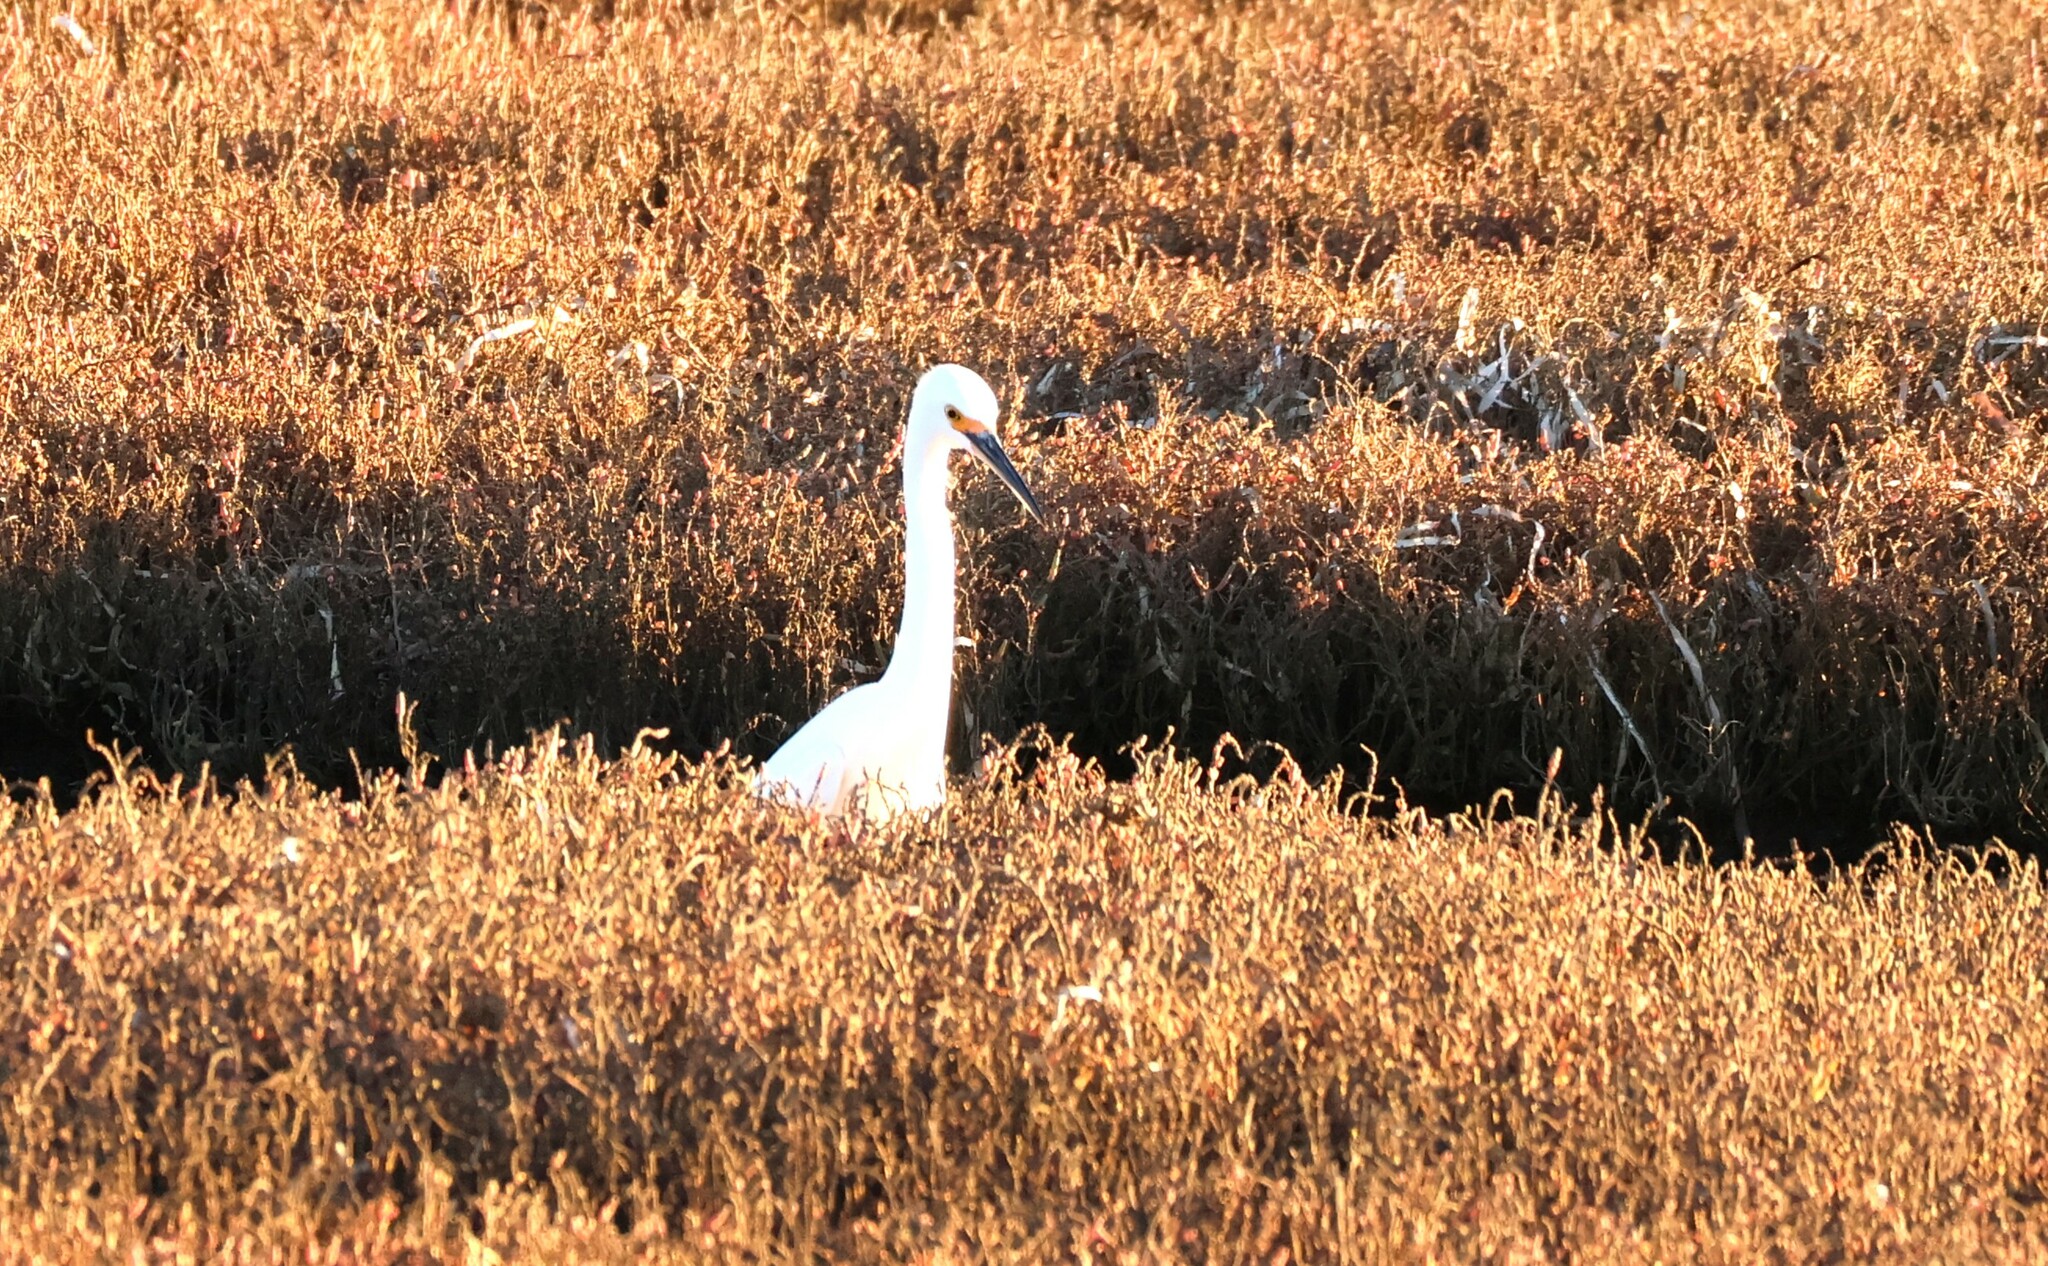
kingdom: Animalia
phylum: Chordata
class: Aves
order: Pelecaniformes
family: Ardeidae
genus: Egretta
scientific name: Egretta thula
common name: Snowy egret
